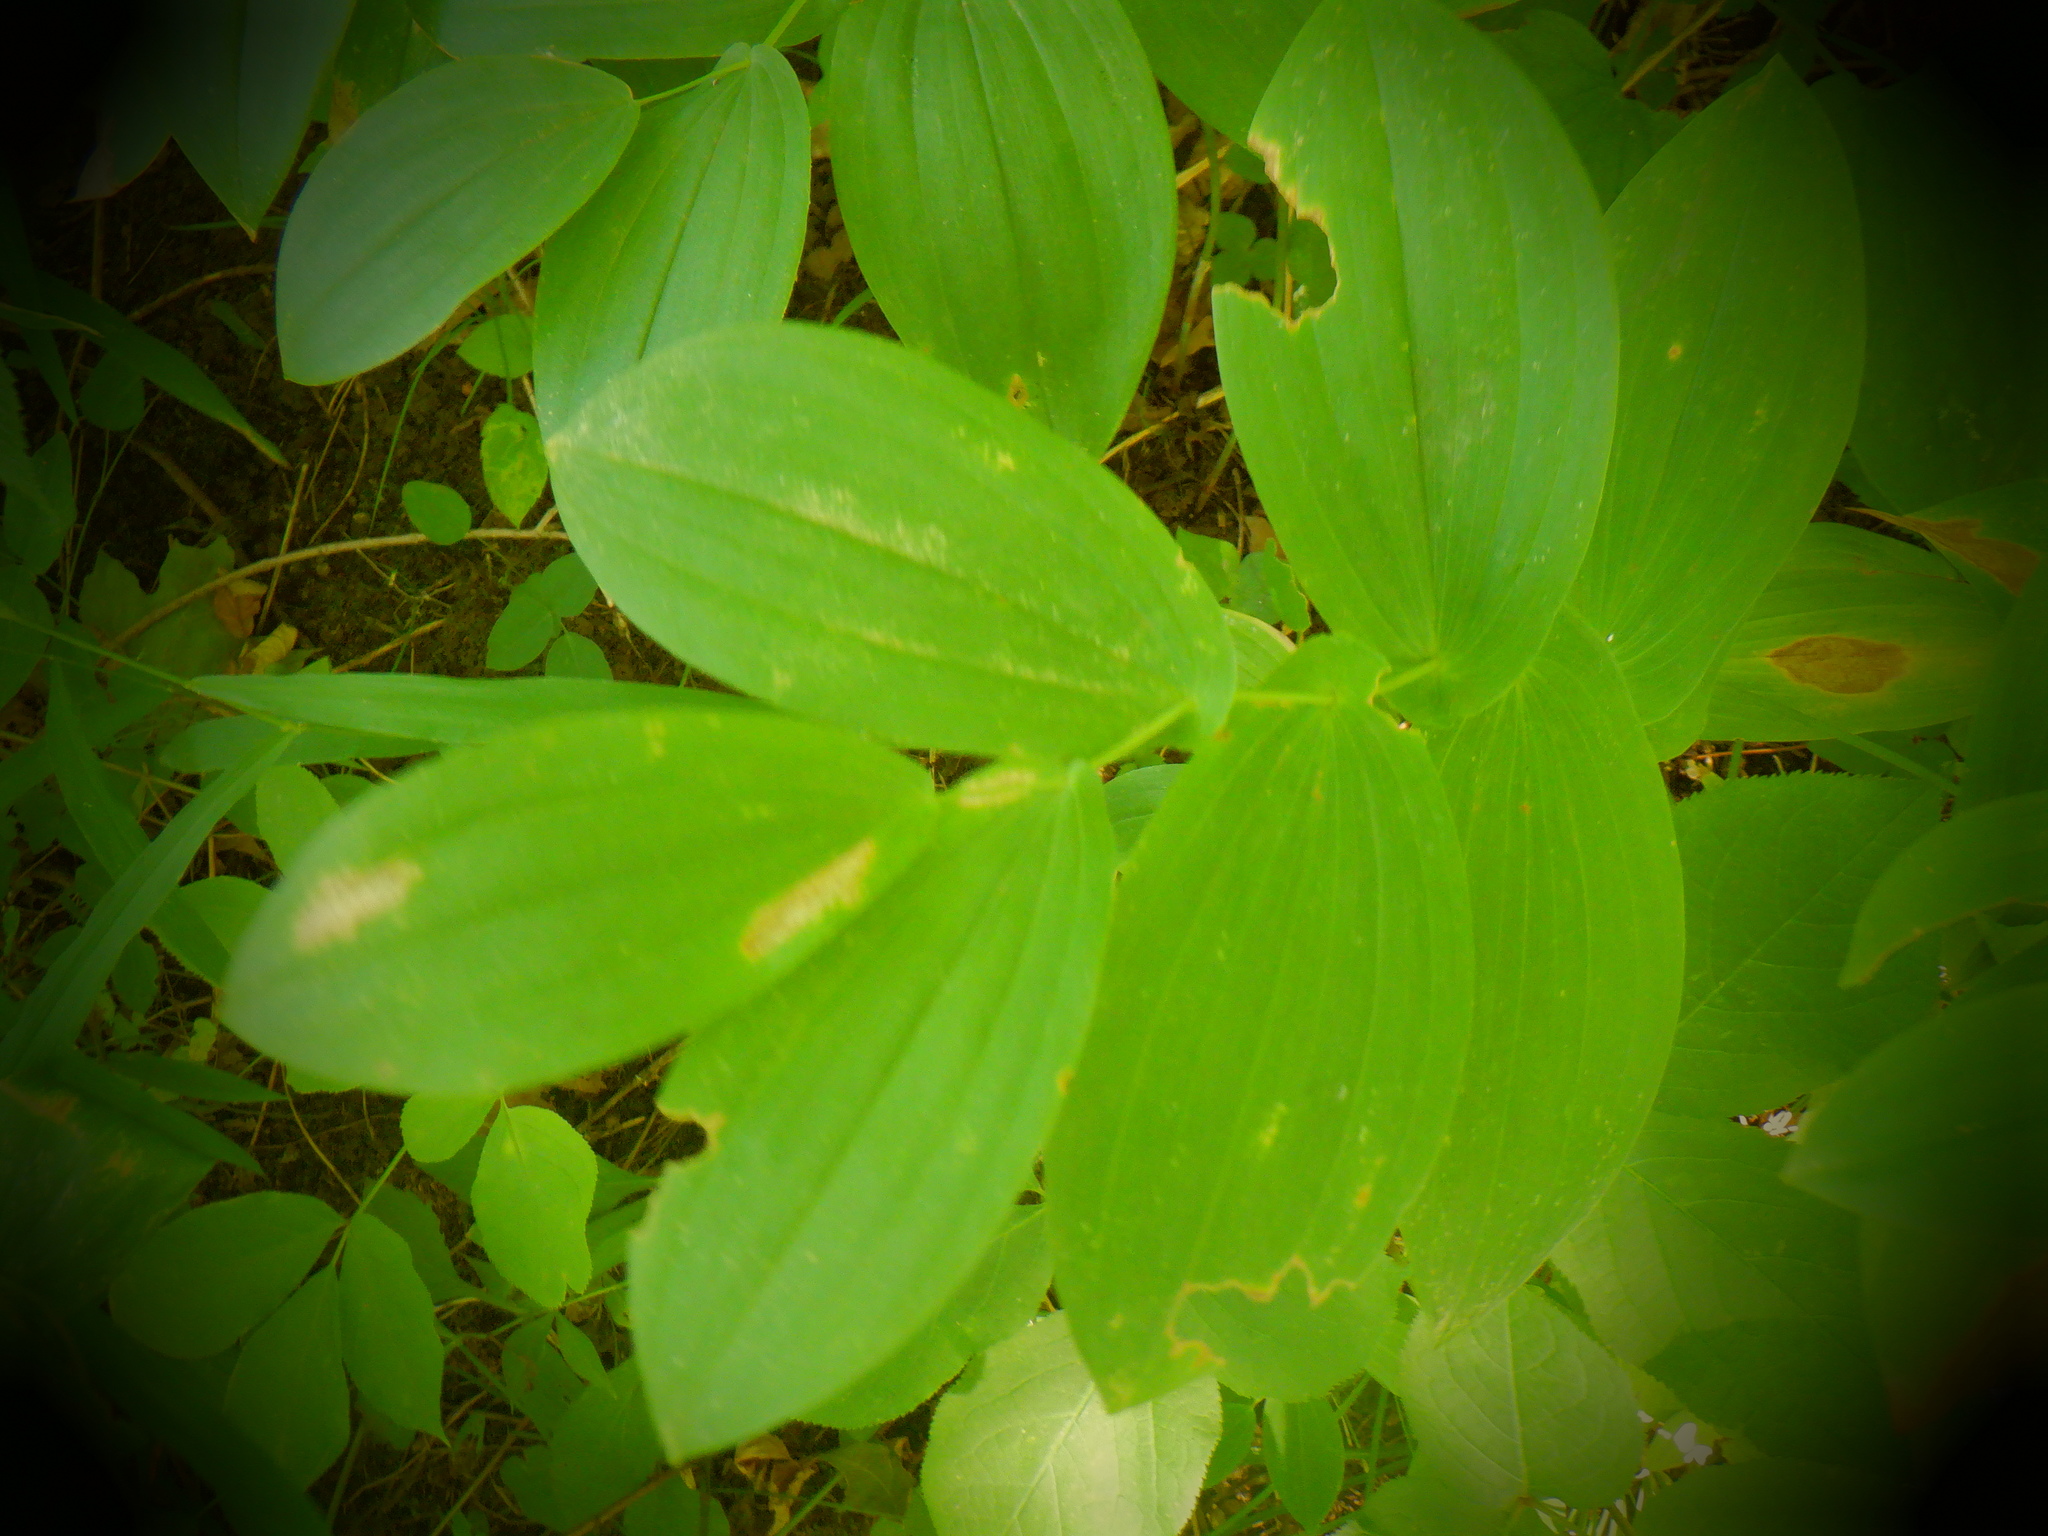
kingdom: Plantae
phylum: Tracheophyta
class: Liliopsida
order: Liliales
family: Colchicaceae
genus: Uvularia
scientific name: Uvularia grandiflora
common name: Bellwort
